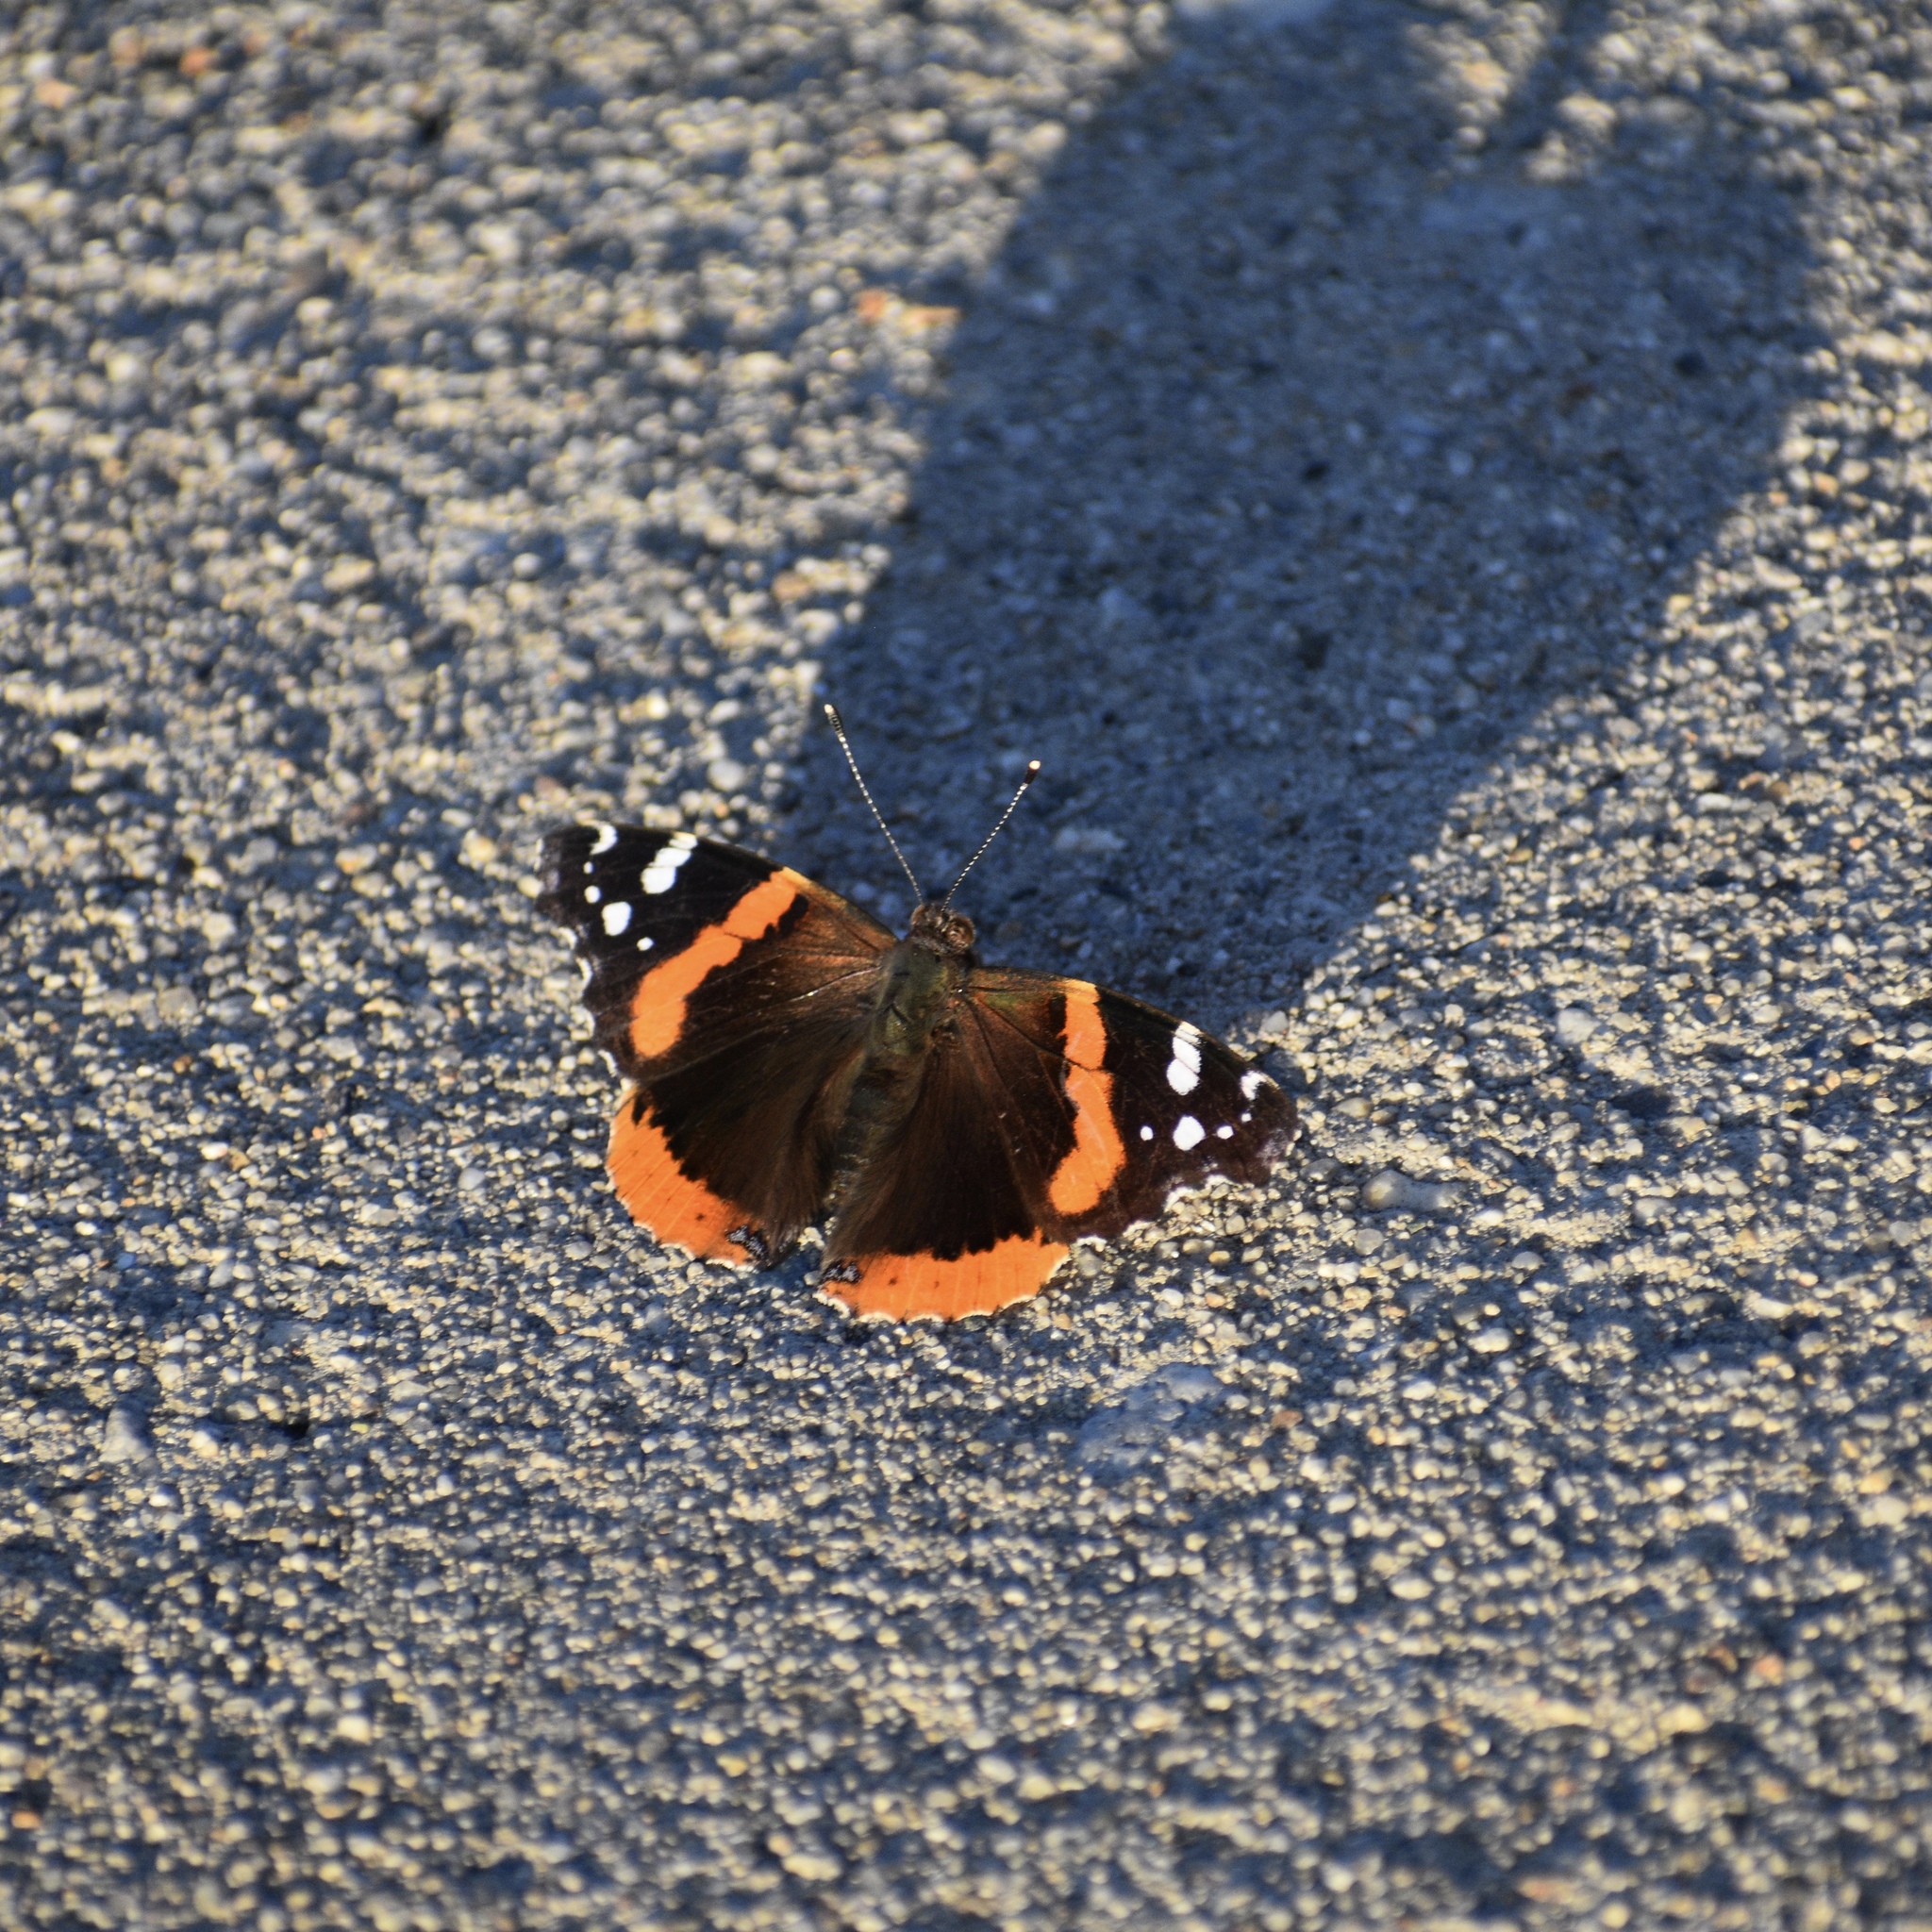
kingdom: Animalia
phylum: Arthropoda
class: Insecta
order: Lepidoptera
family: Nymphalidae
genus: Vanessa
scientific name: Vanessa atalanta
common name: Red admiral
